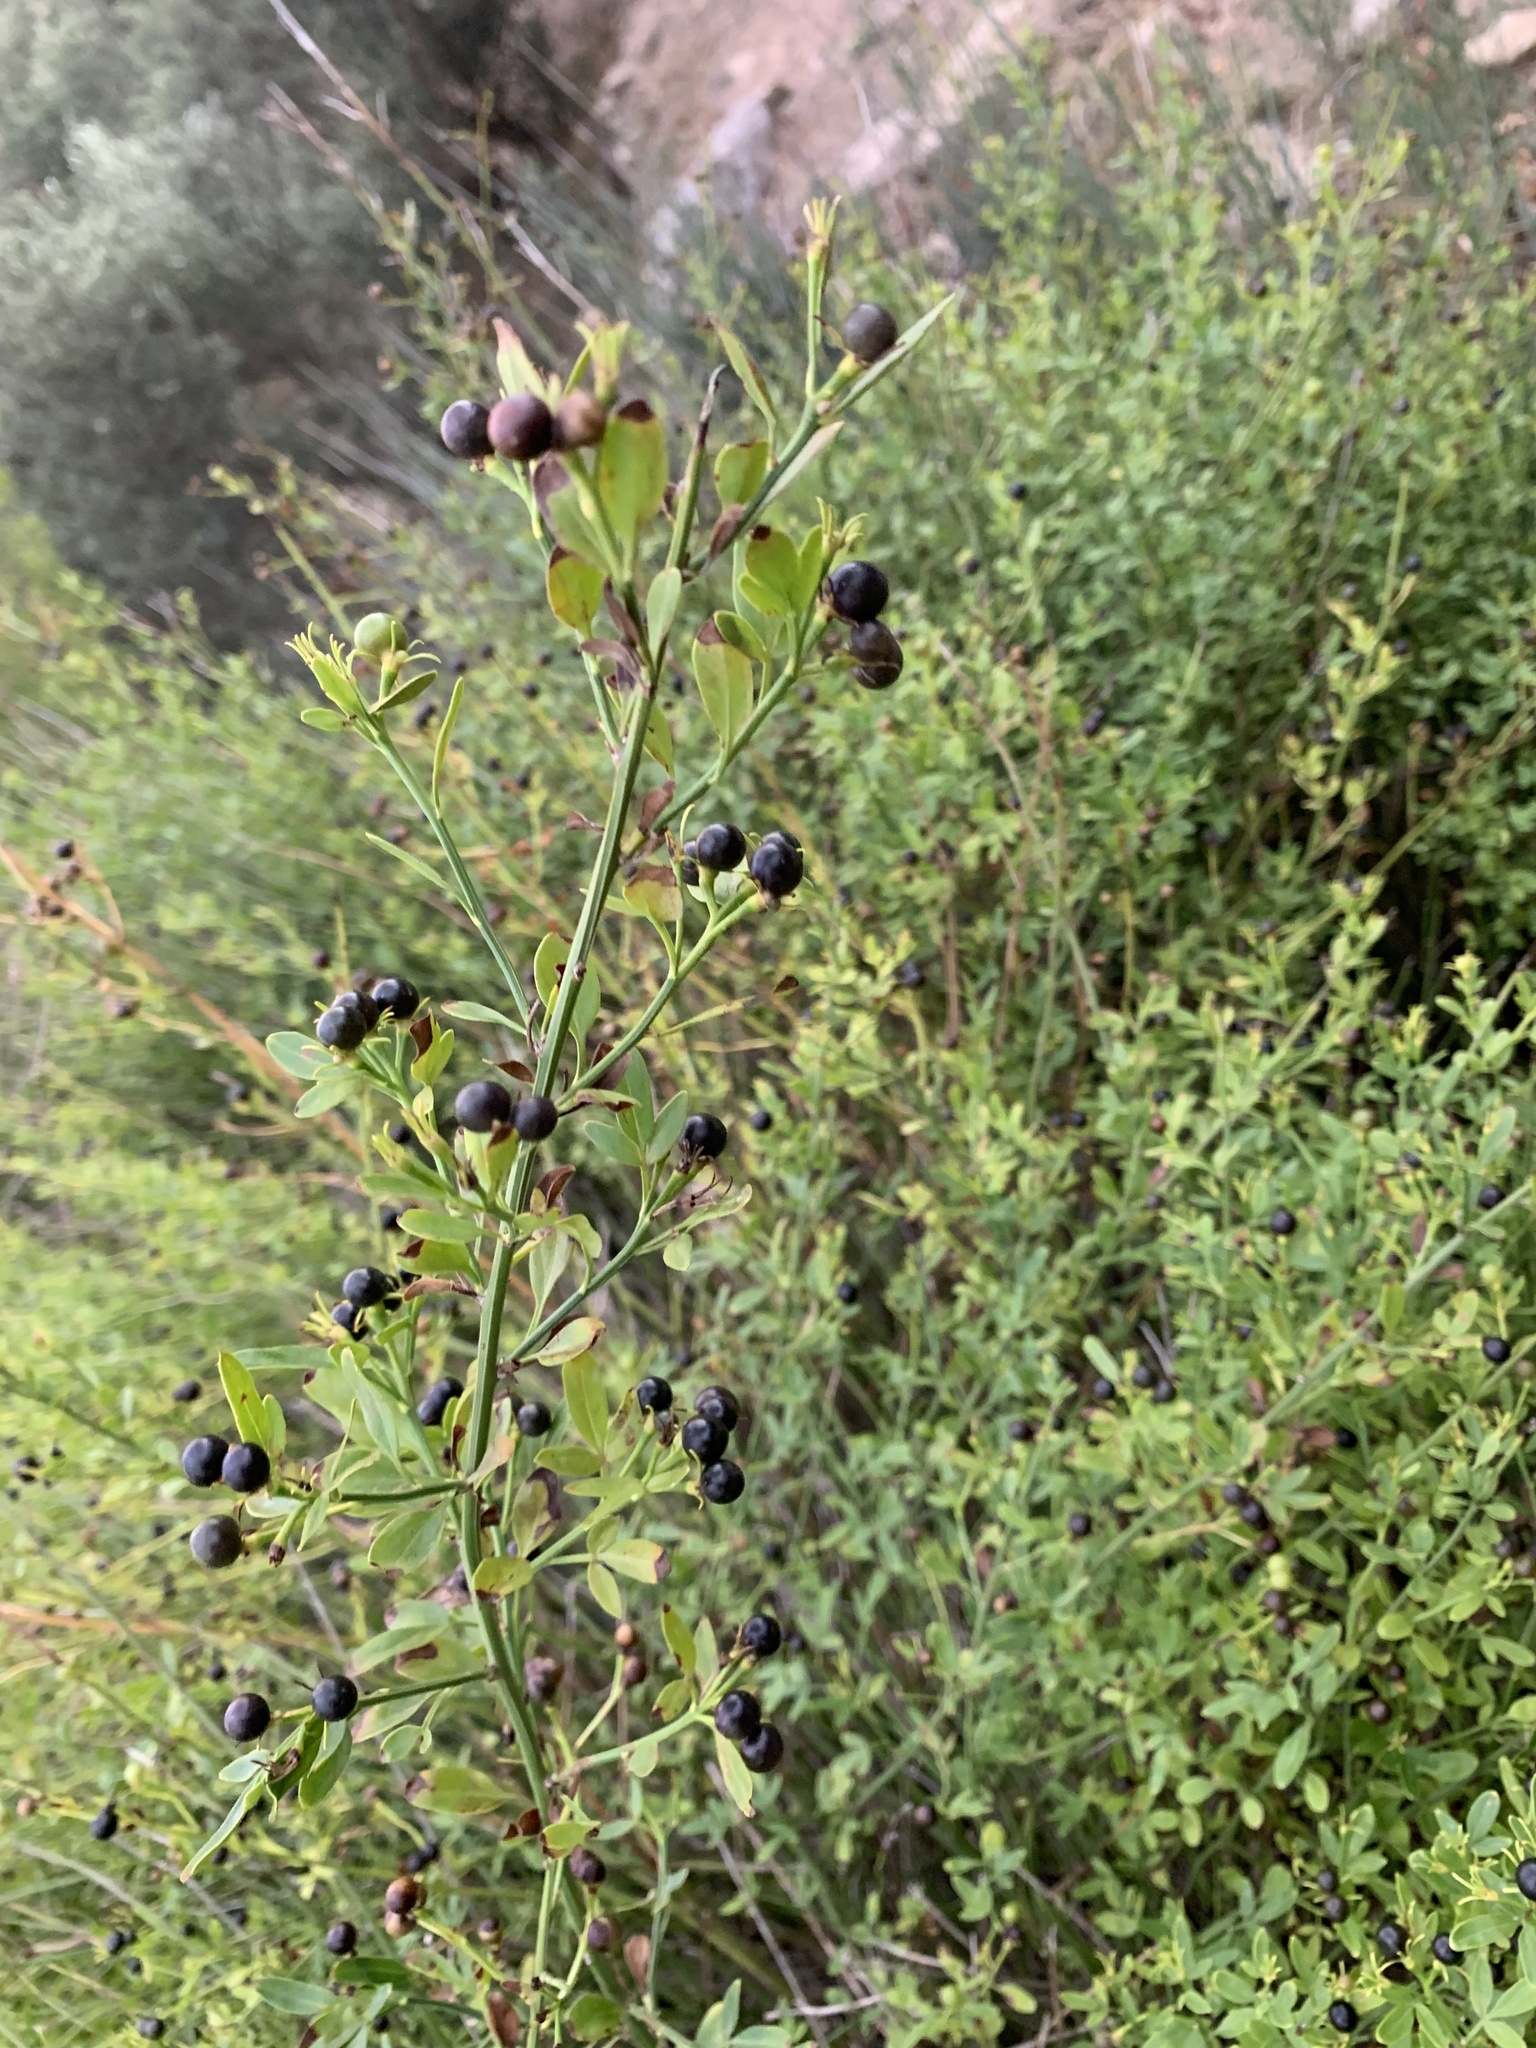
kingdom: Plantae
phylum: Tracheophyta
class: Magnoliopsida
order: Lamiales
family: Oleaceae
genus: Chrysojasminum
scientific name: Chrysojasminum fruticans
